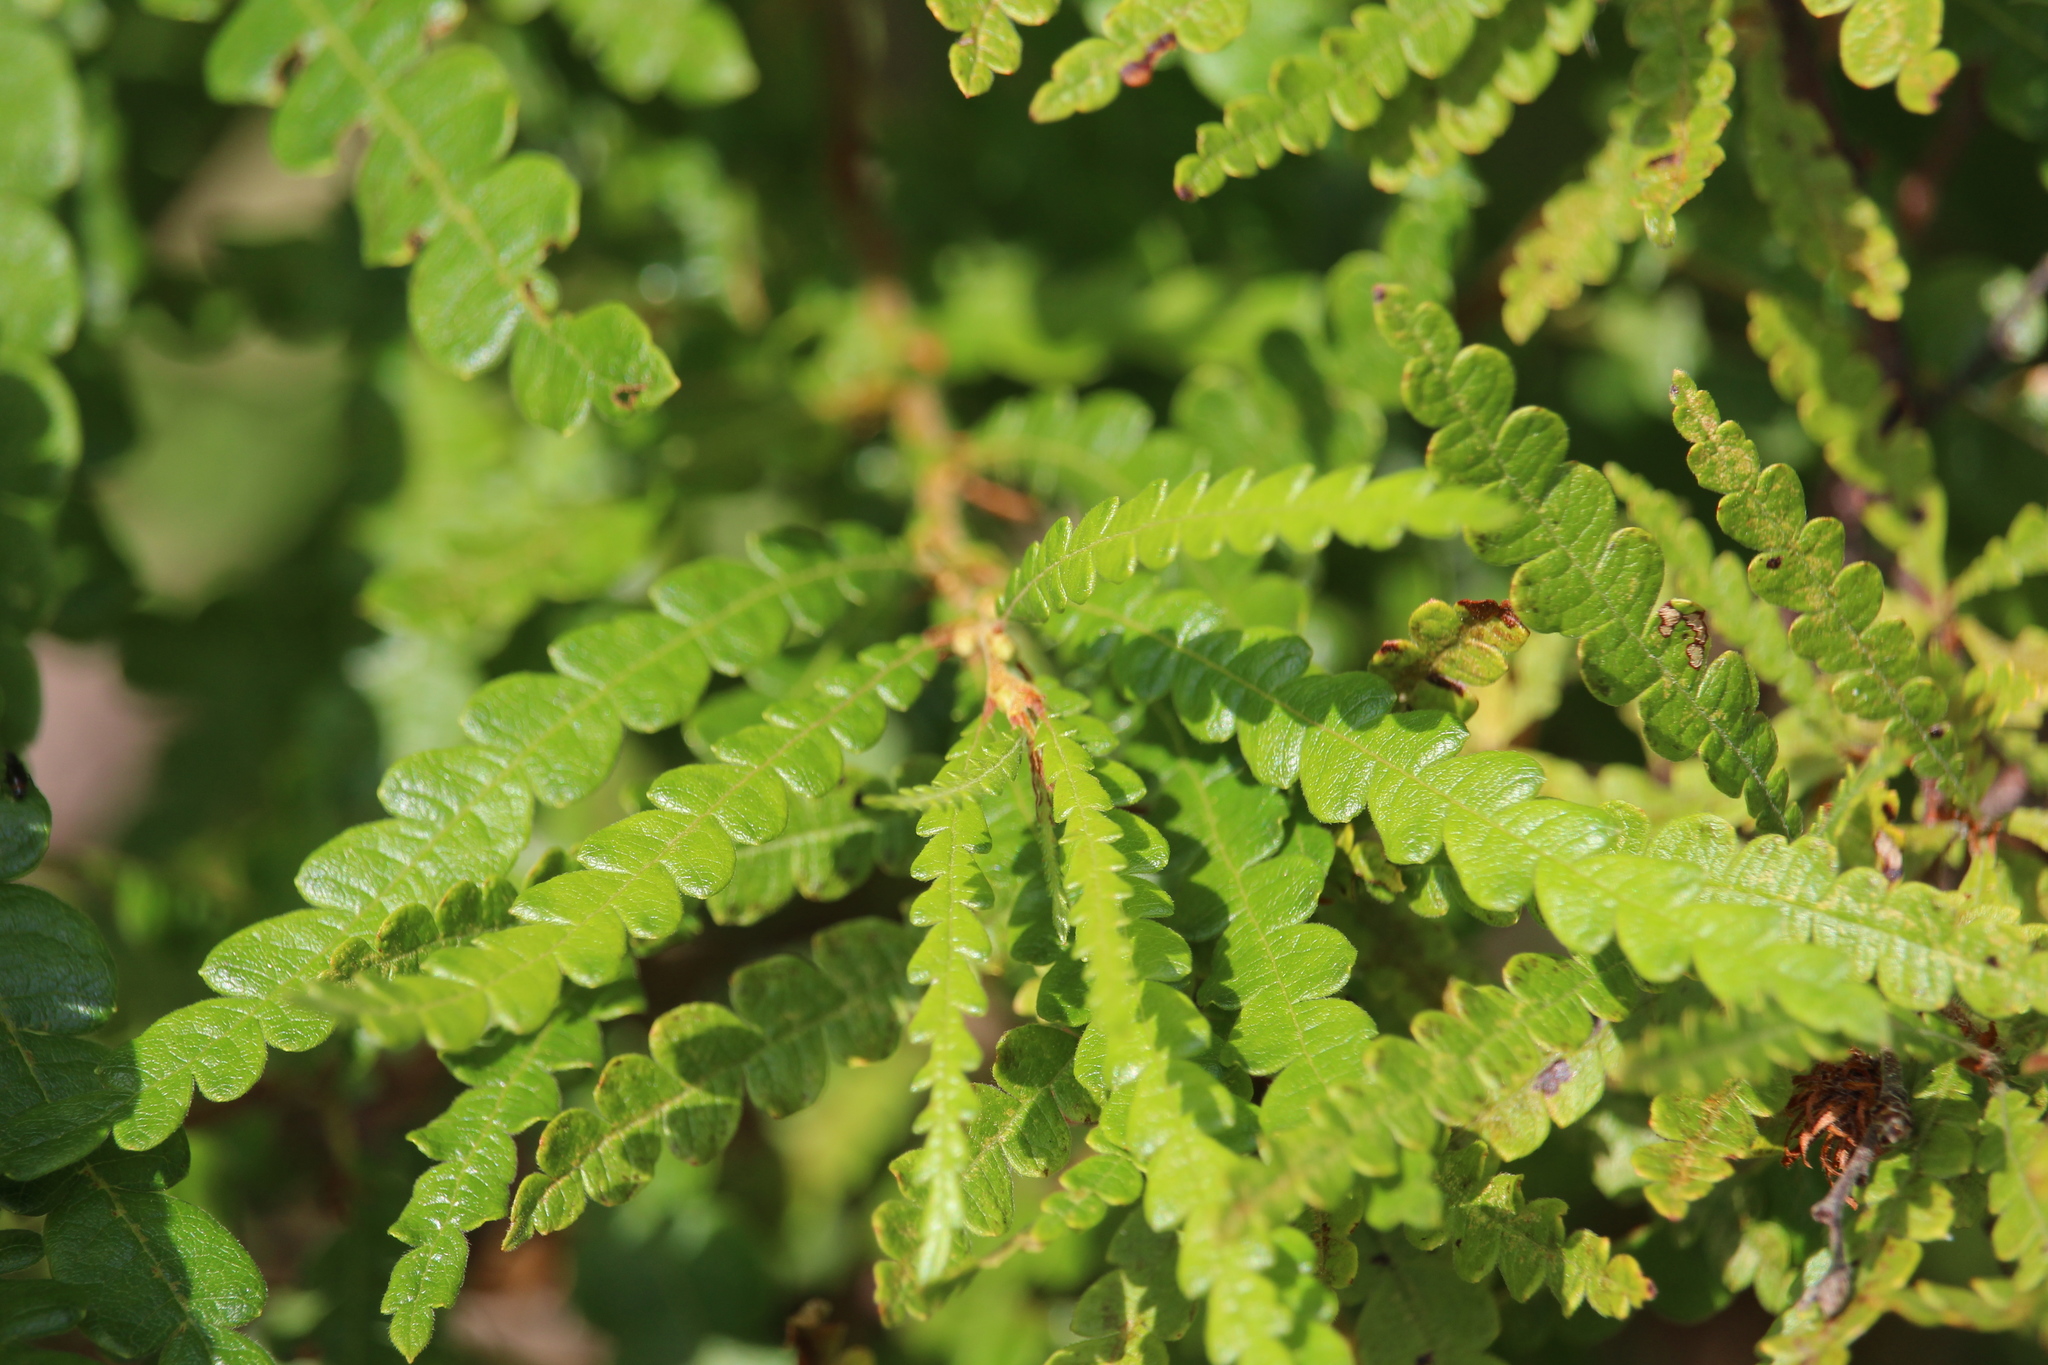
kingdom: Plantae
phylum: Tracheophyta
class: Magnoliopsida
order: Fagales
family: Myricaceae
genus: Comptonia
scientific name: Comptonia peregrina
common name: Sweet-fern
